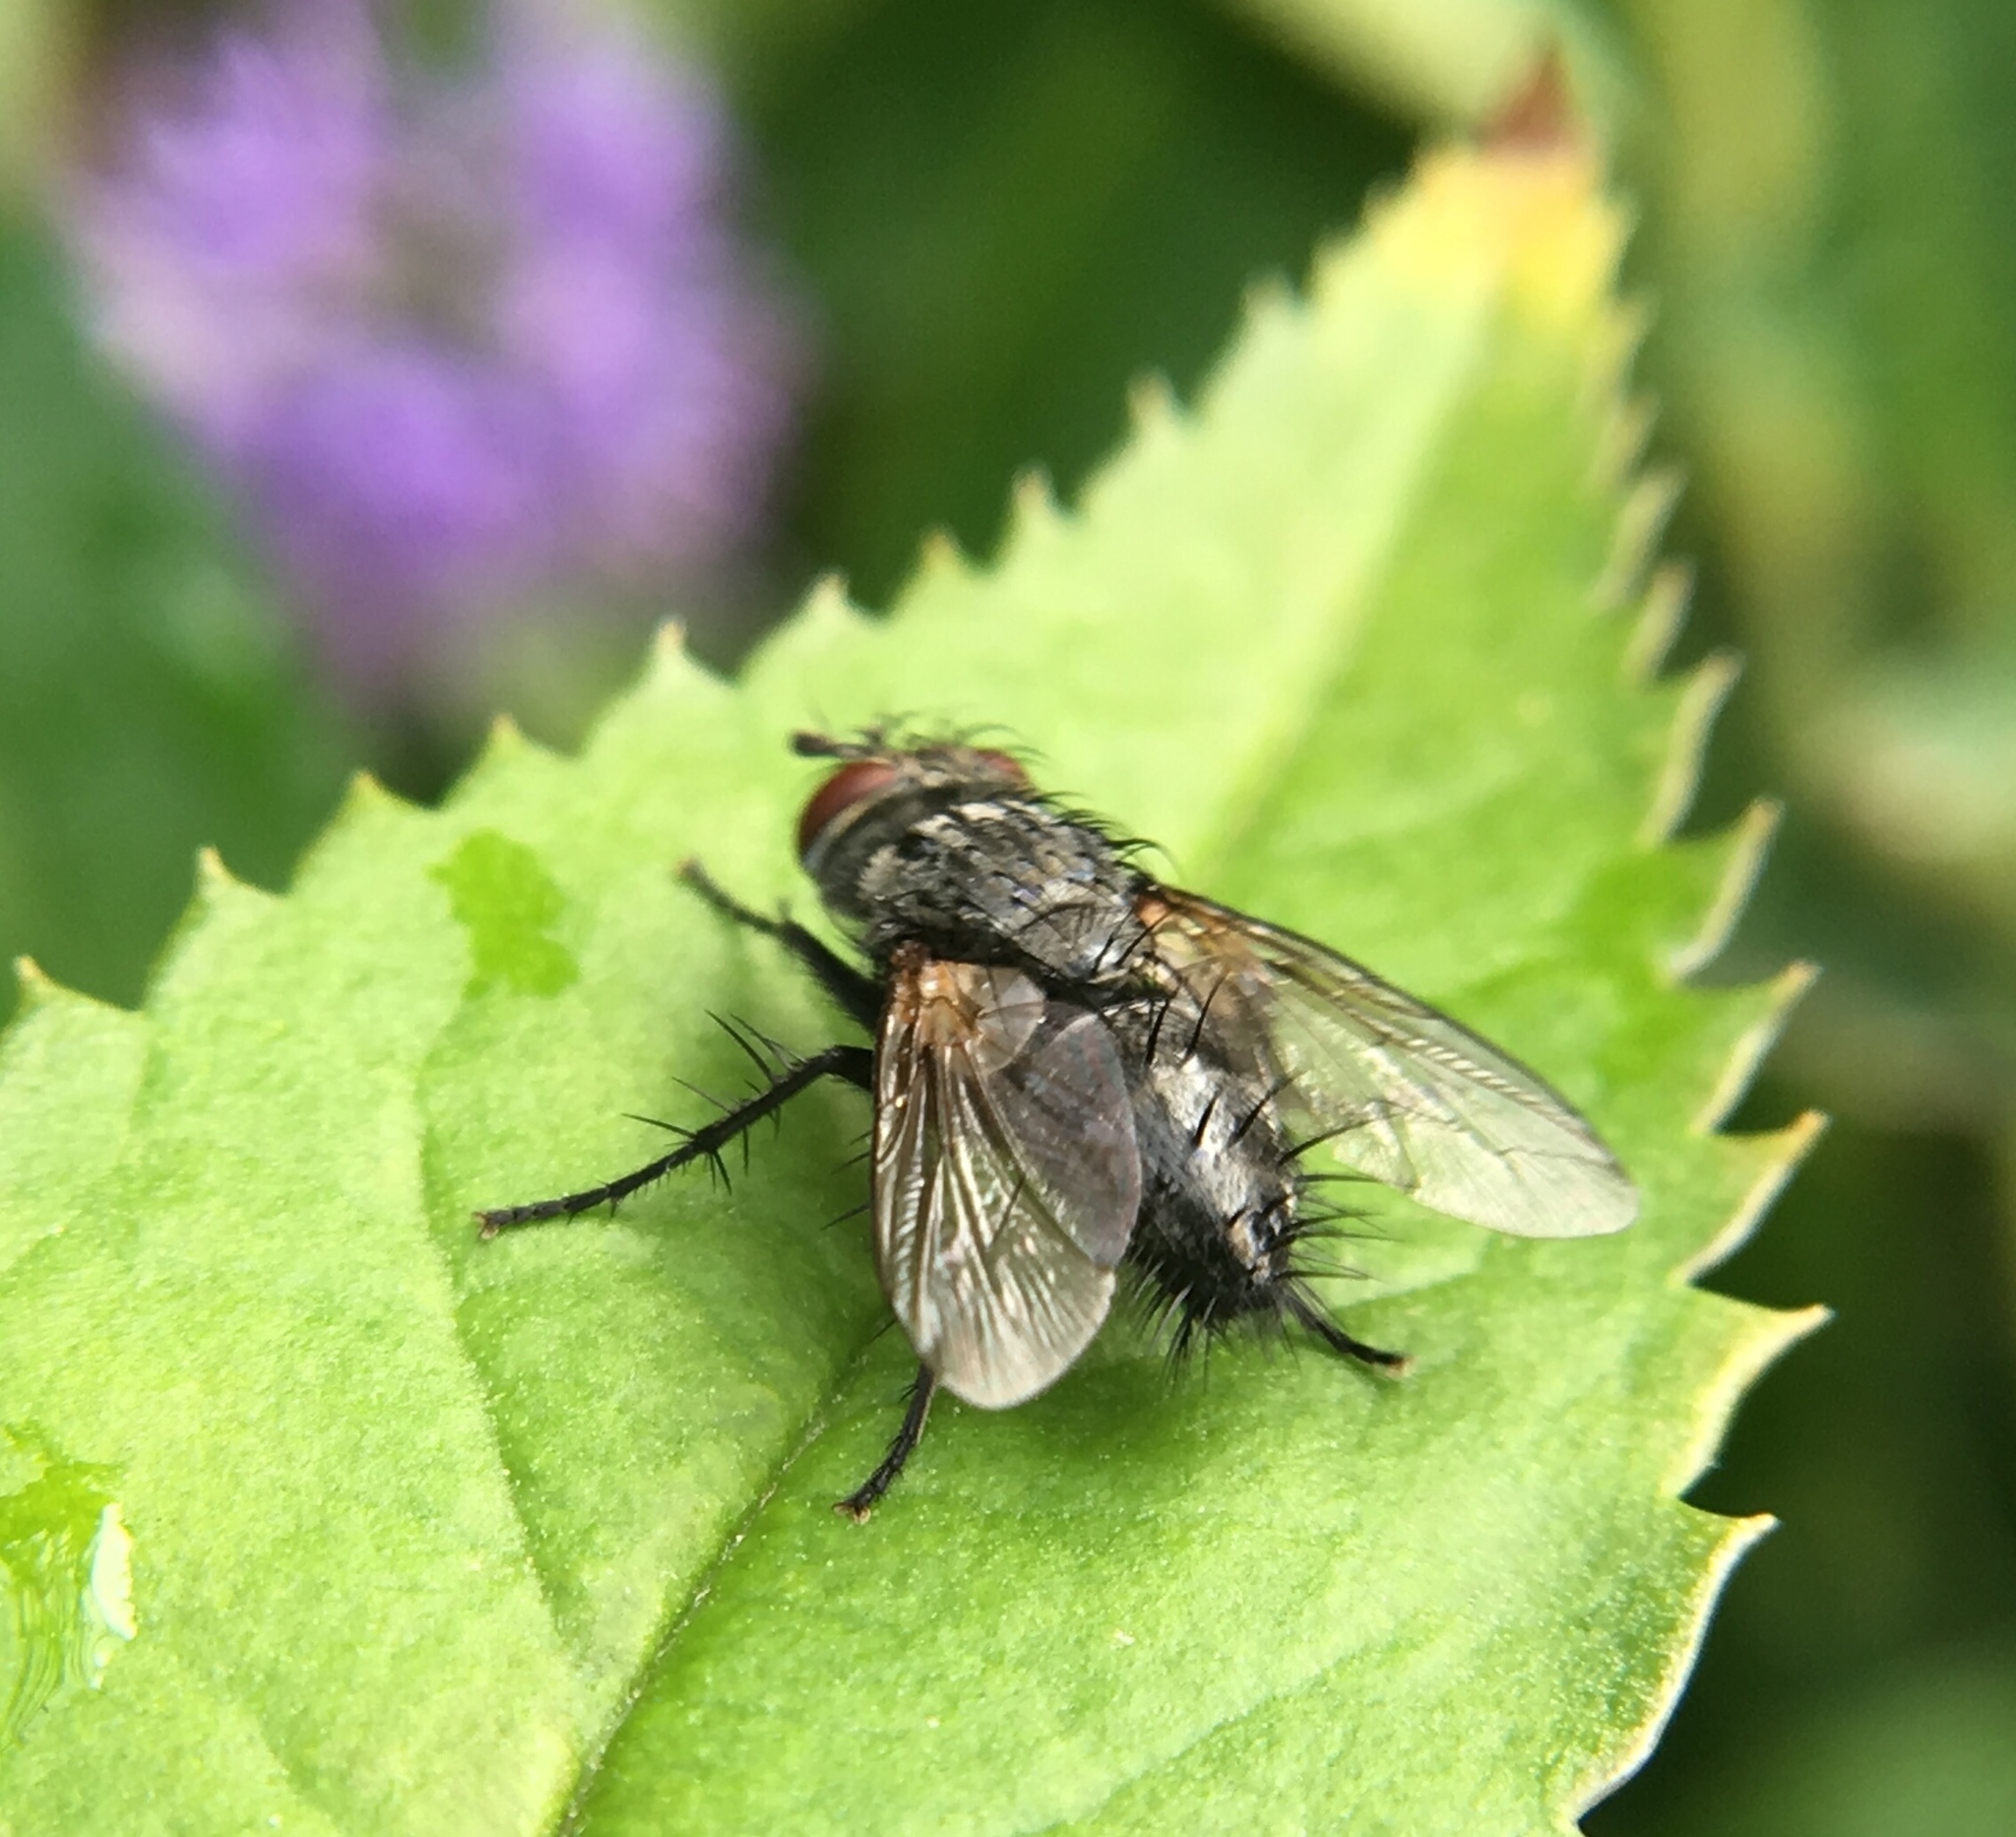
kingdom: Animalia
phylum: Arthropoda
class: Insecta
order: Diptera
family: Tachinidae
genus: Voria
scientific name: Voria ruralis
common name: Parasitic fly
